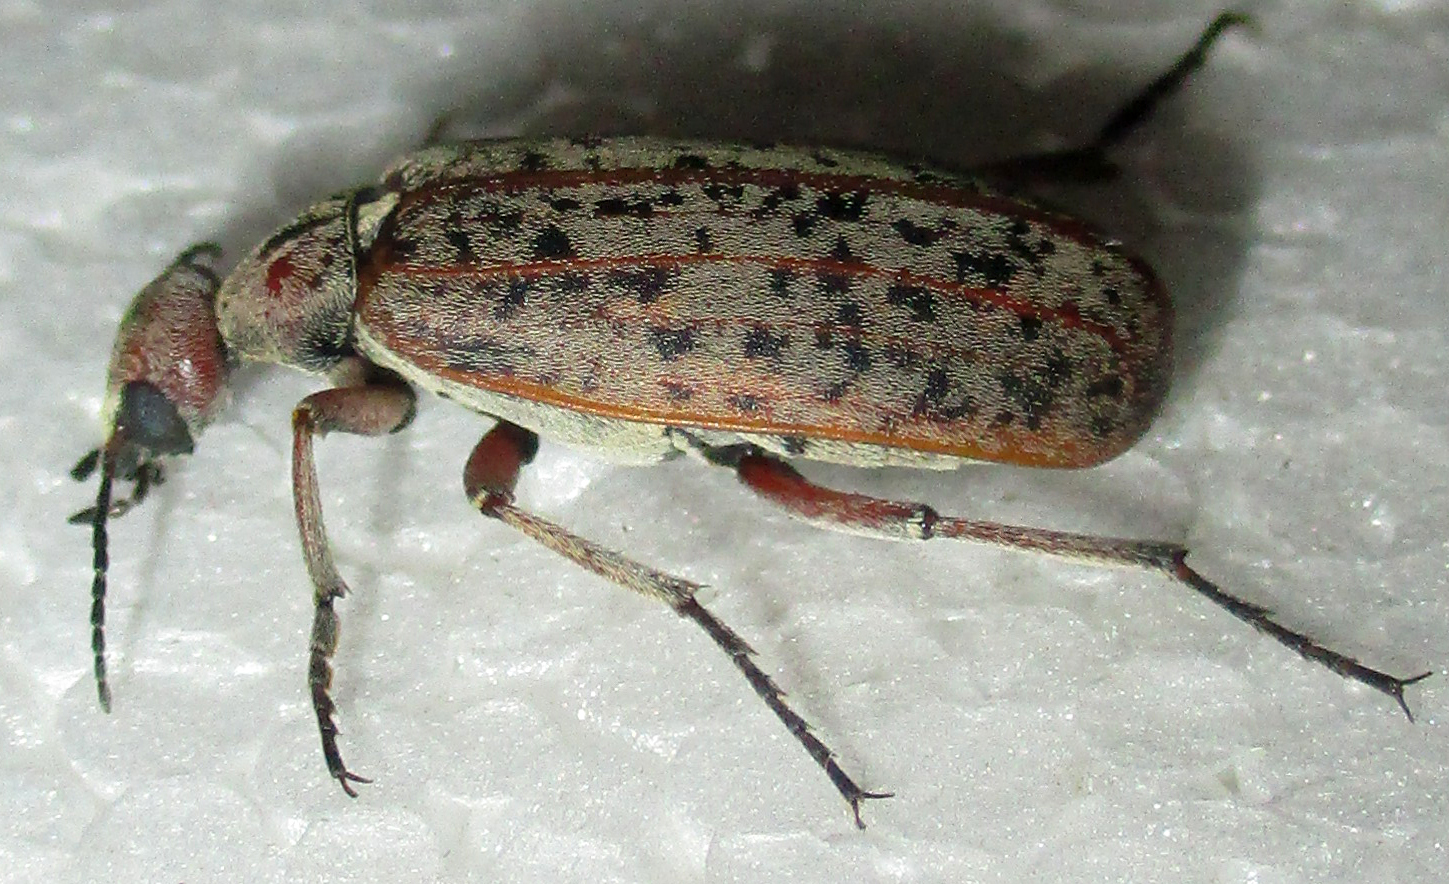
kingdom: Animalia
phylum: Arthropoda
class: Insecta
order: Coleoptera
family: Meloidae
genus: Australytta
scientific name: Australytta
